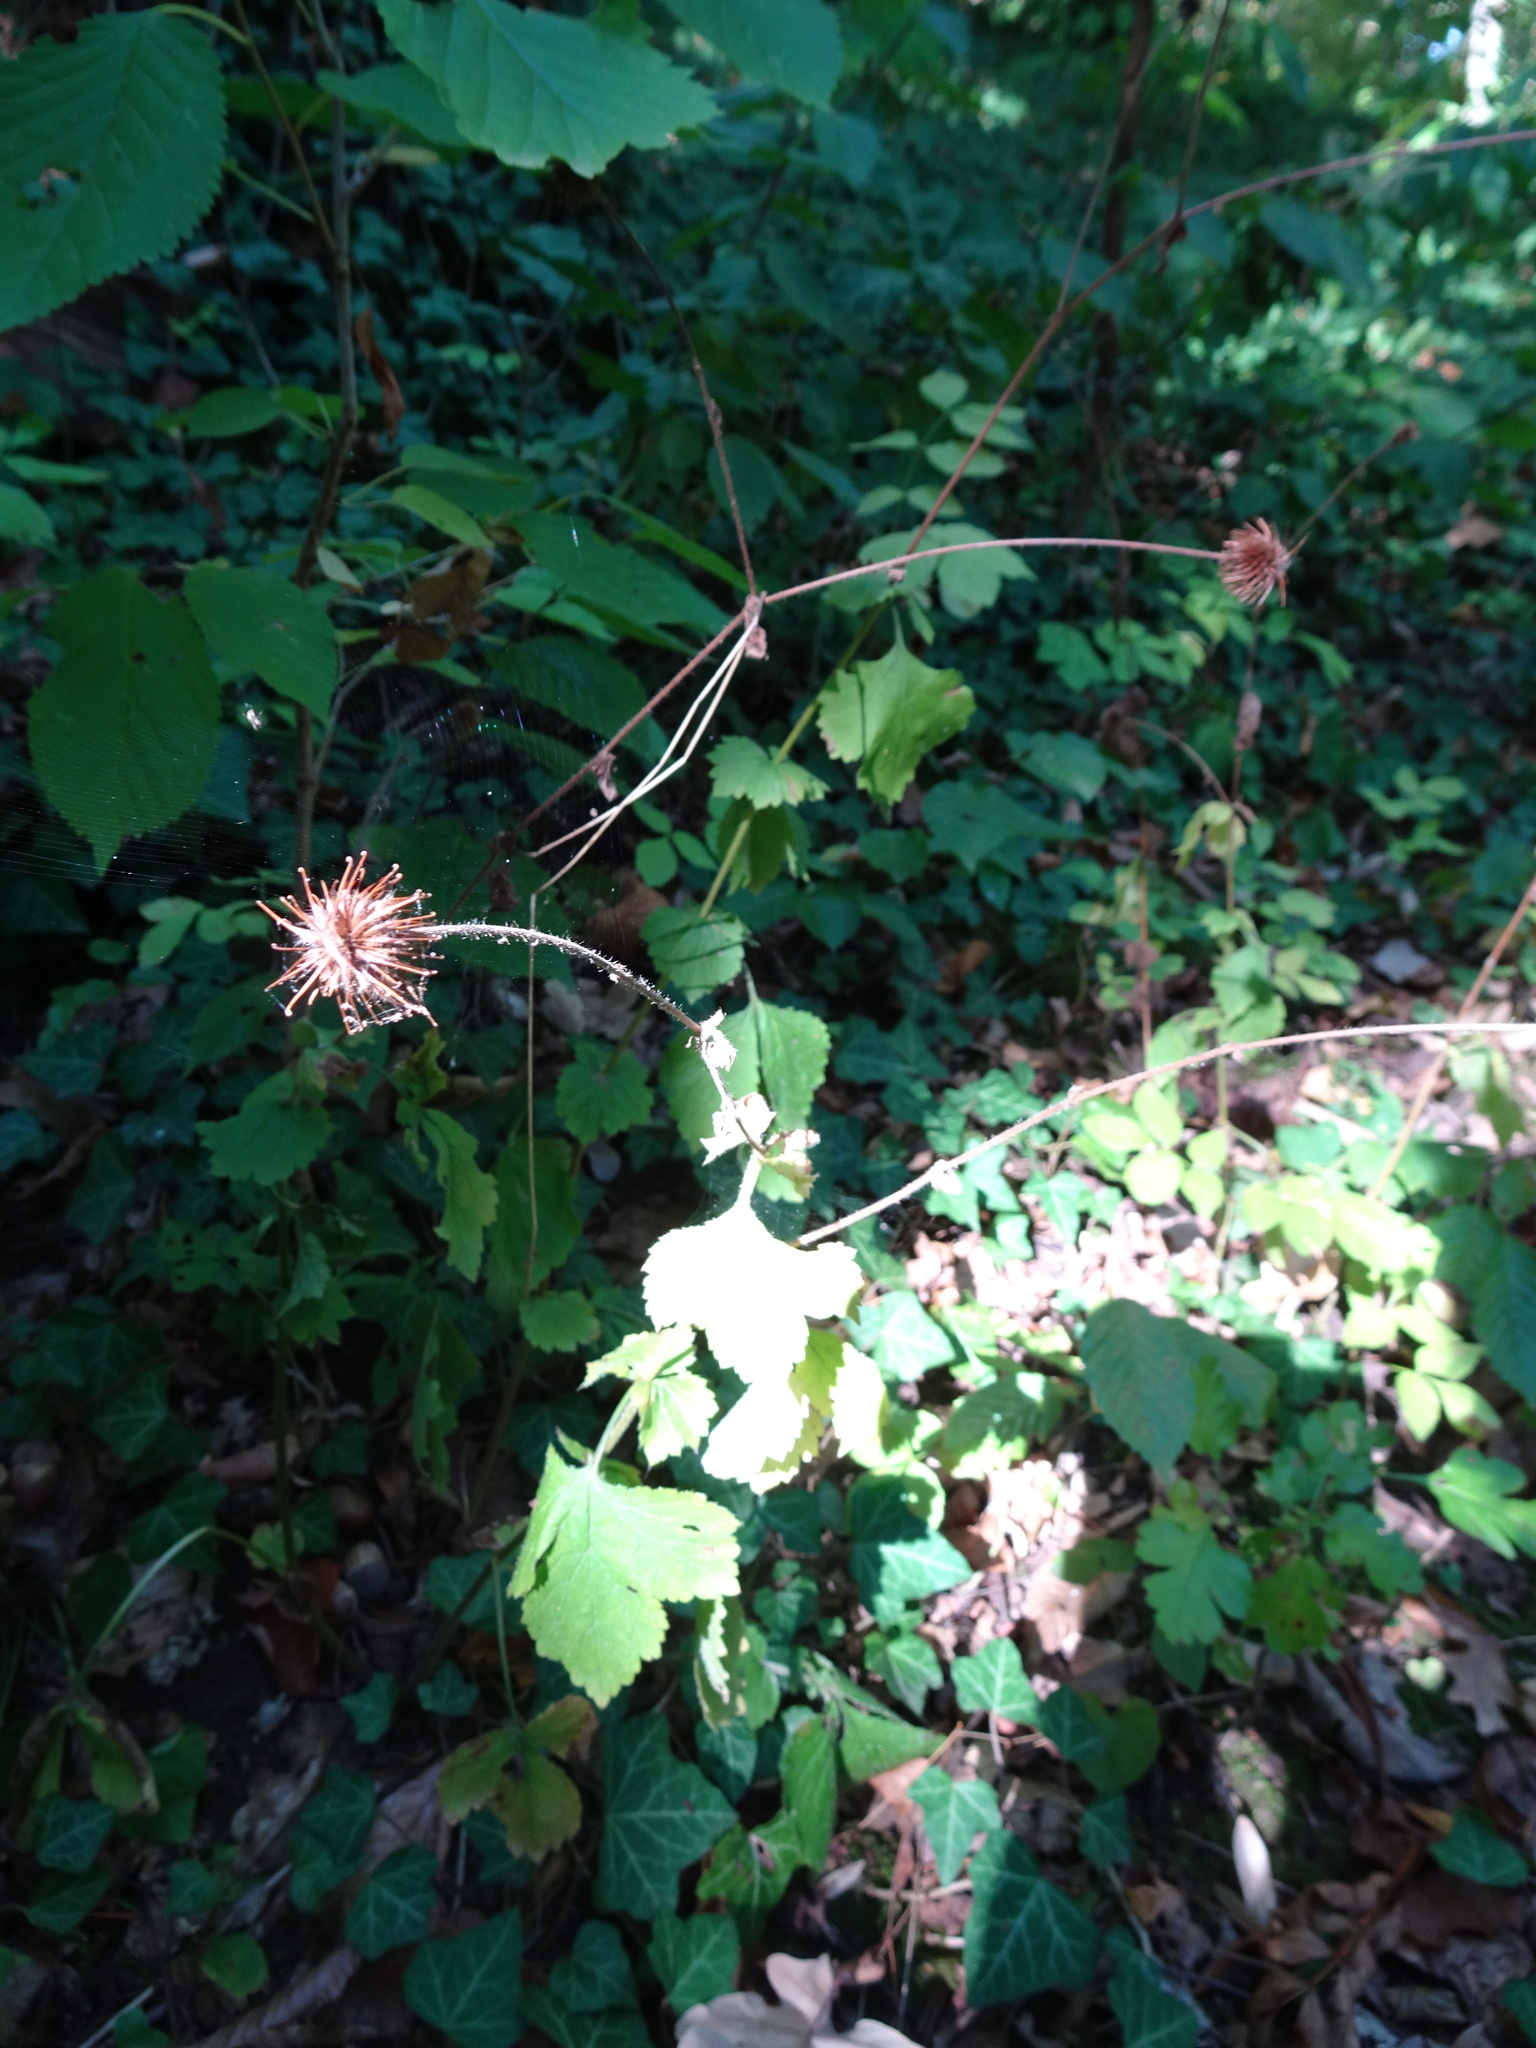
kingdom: Plantae
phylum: Tracheophyta
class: Magnoliopsida
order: Rosales
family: Rosaceae
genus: Geum
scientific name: Geum urbanum
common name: Wood avens
